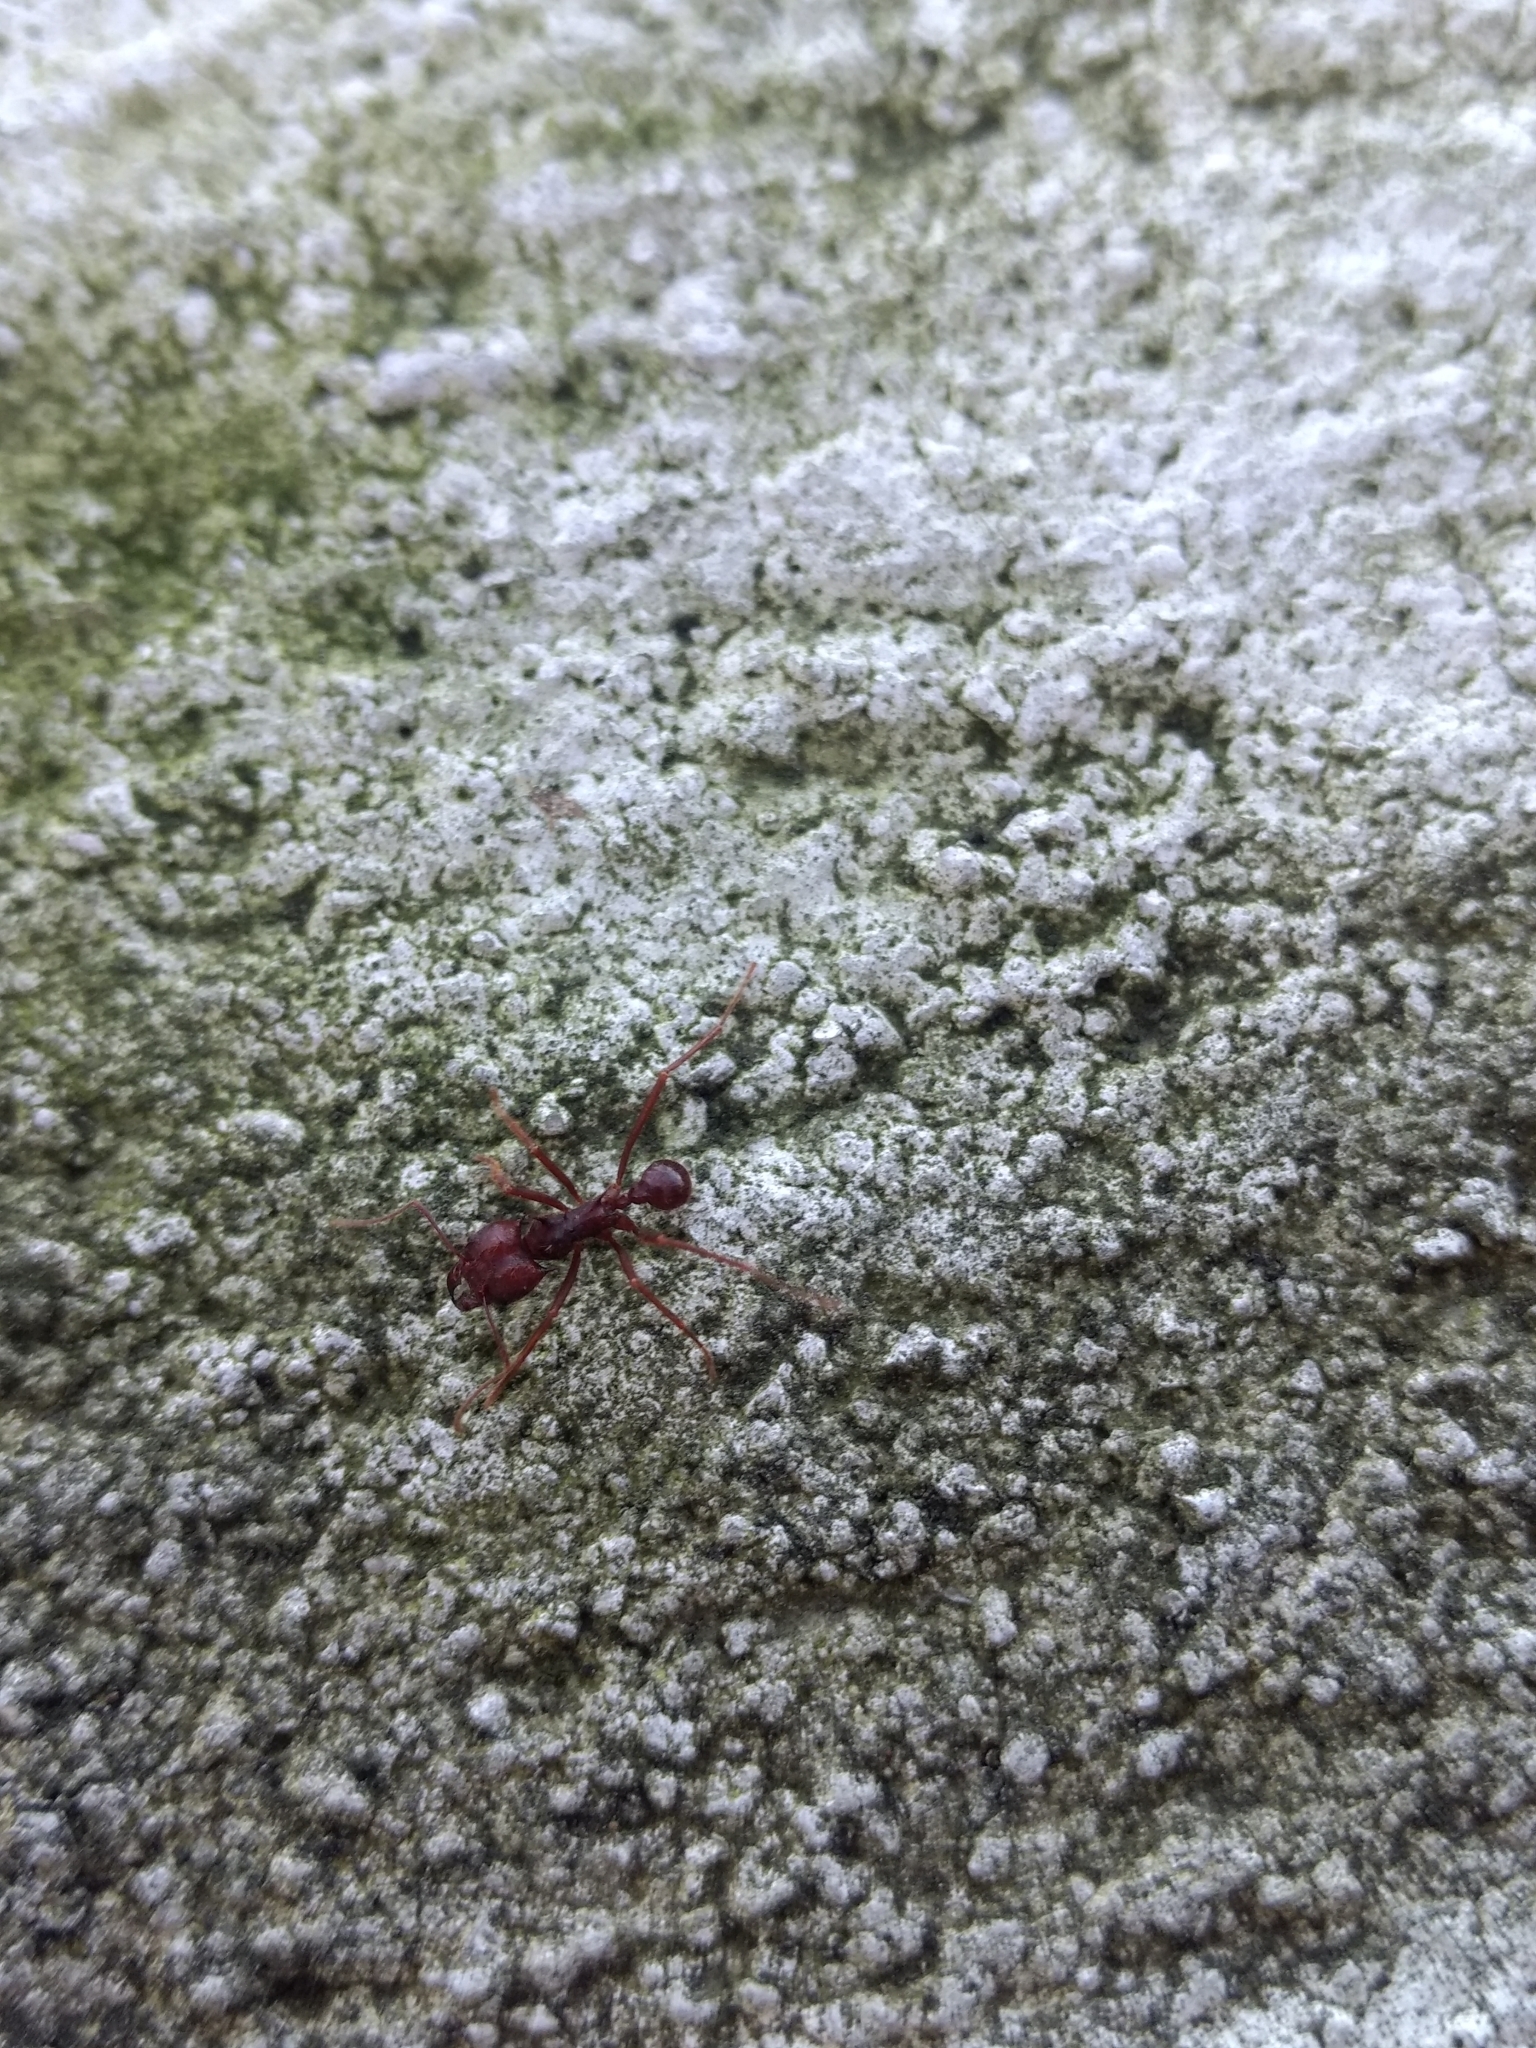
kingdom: Animalia
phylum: Arthropoda
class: Insecta
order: Hymenoptera
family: Formicidae
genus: Atta
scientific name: Atta mexicana
